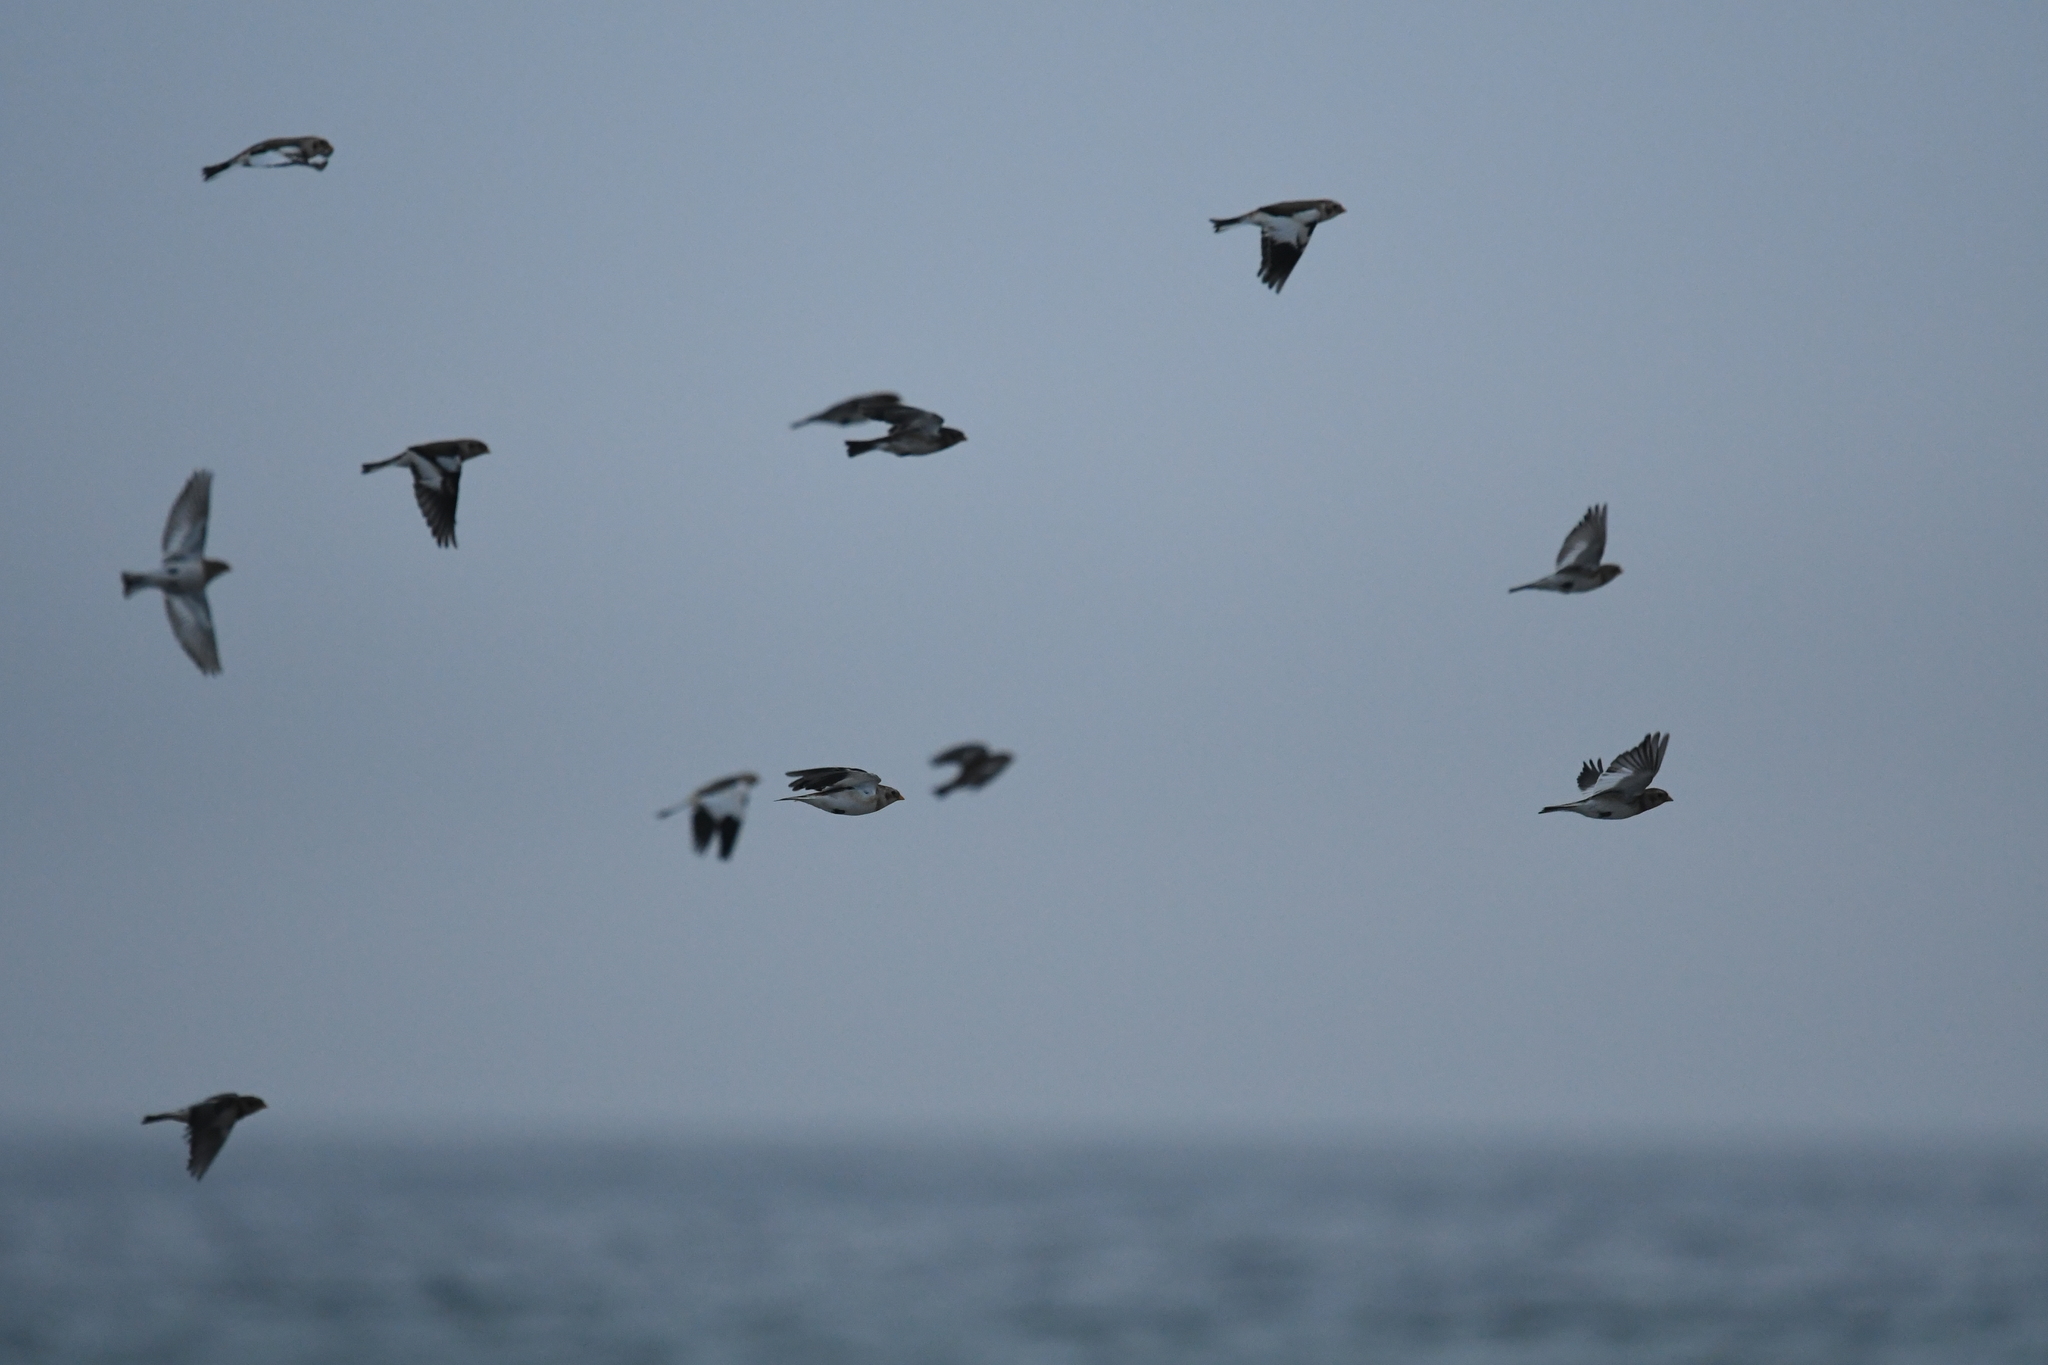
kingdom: Animalia
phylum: Chordata
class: Aves
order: Passeriformes
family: Calcariidae
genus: Plectrophenax
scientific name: Plectrophenax nivalis
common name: Snow bunting
